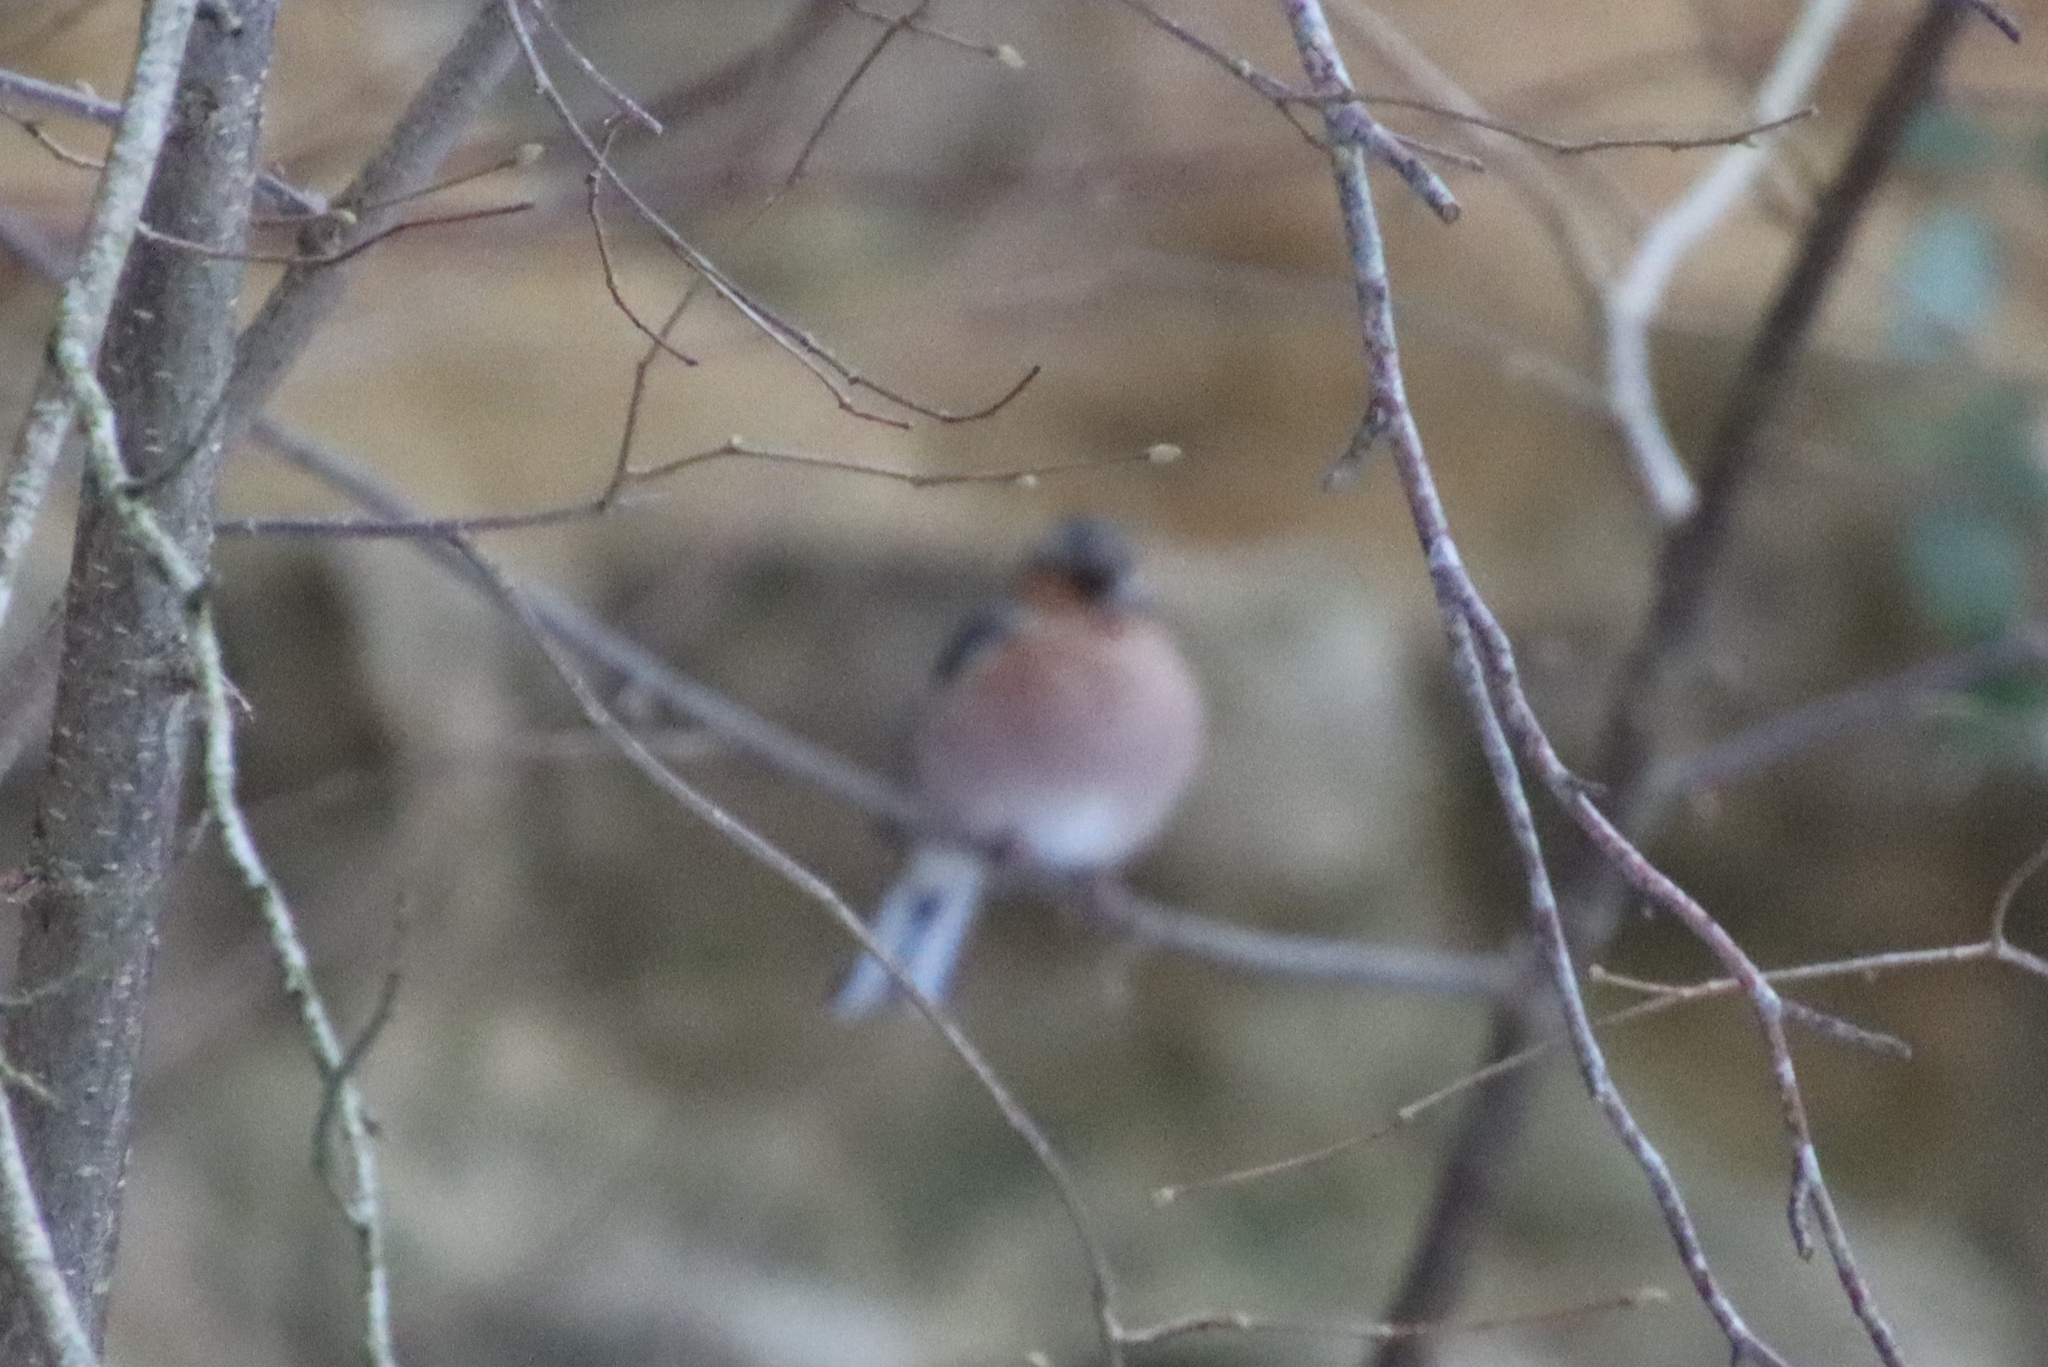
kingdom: Animalia
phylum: Chordata
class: Aves
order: Passeriformes
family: Fringillidae
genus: Fringilla
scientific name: Fringilla coelebs
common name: Common chaffinch
